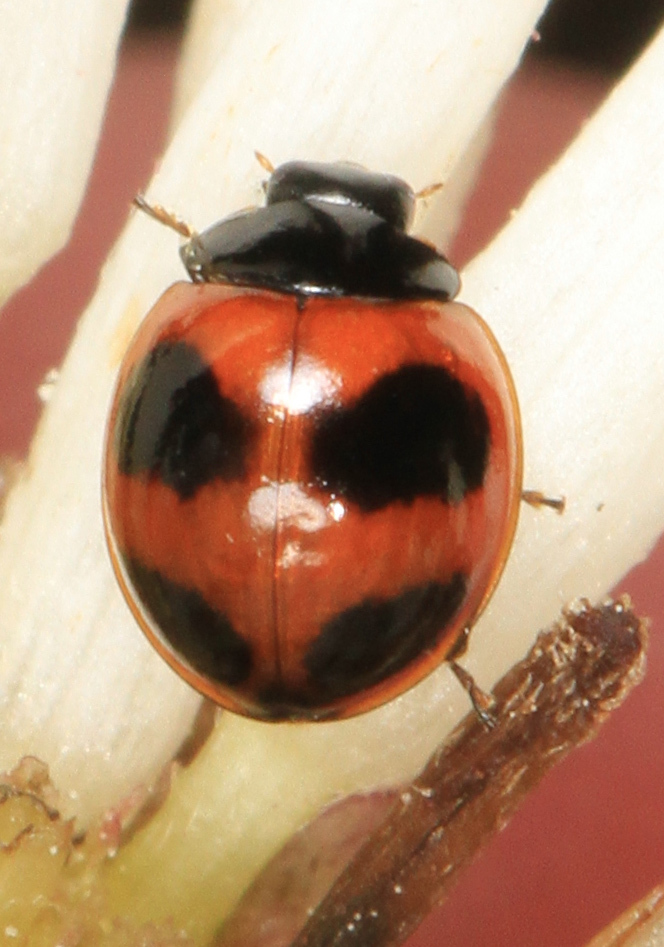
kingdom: Animalia
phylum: Arthropoda
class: Insecta
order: Coleoptera
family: Coccinellidae
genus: Exochomus
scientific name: Exochomus childreni
